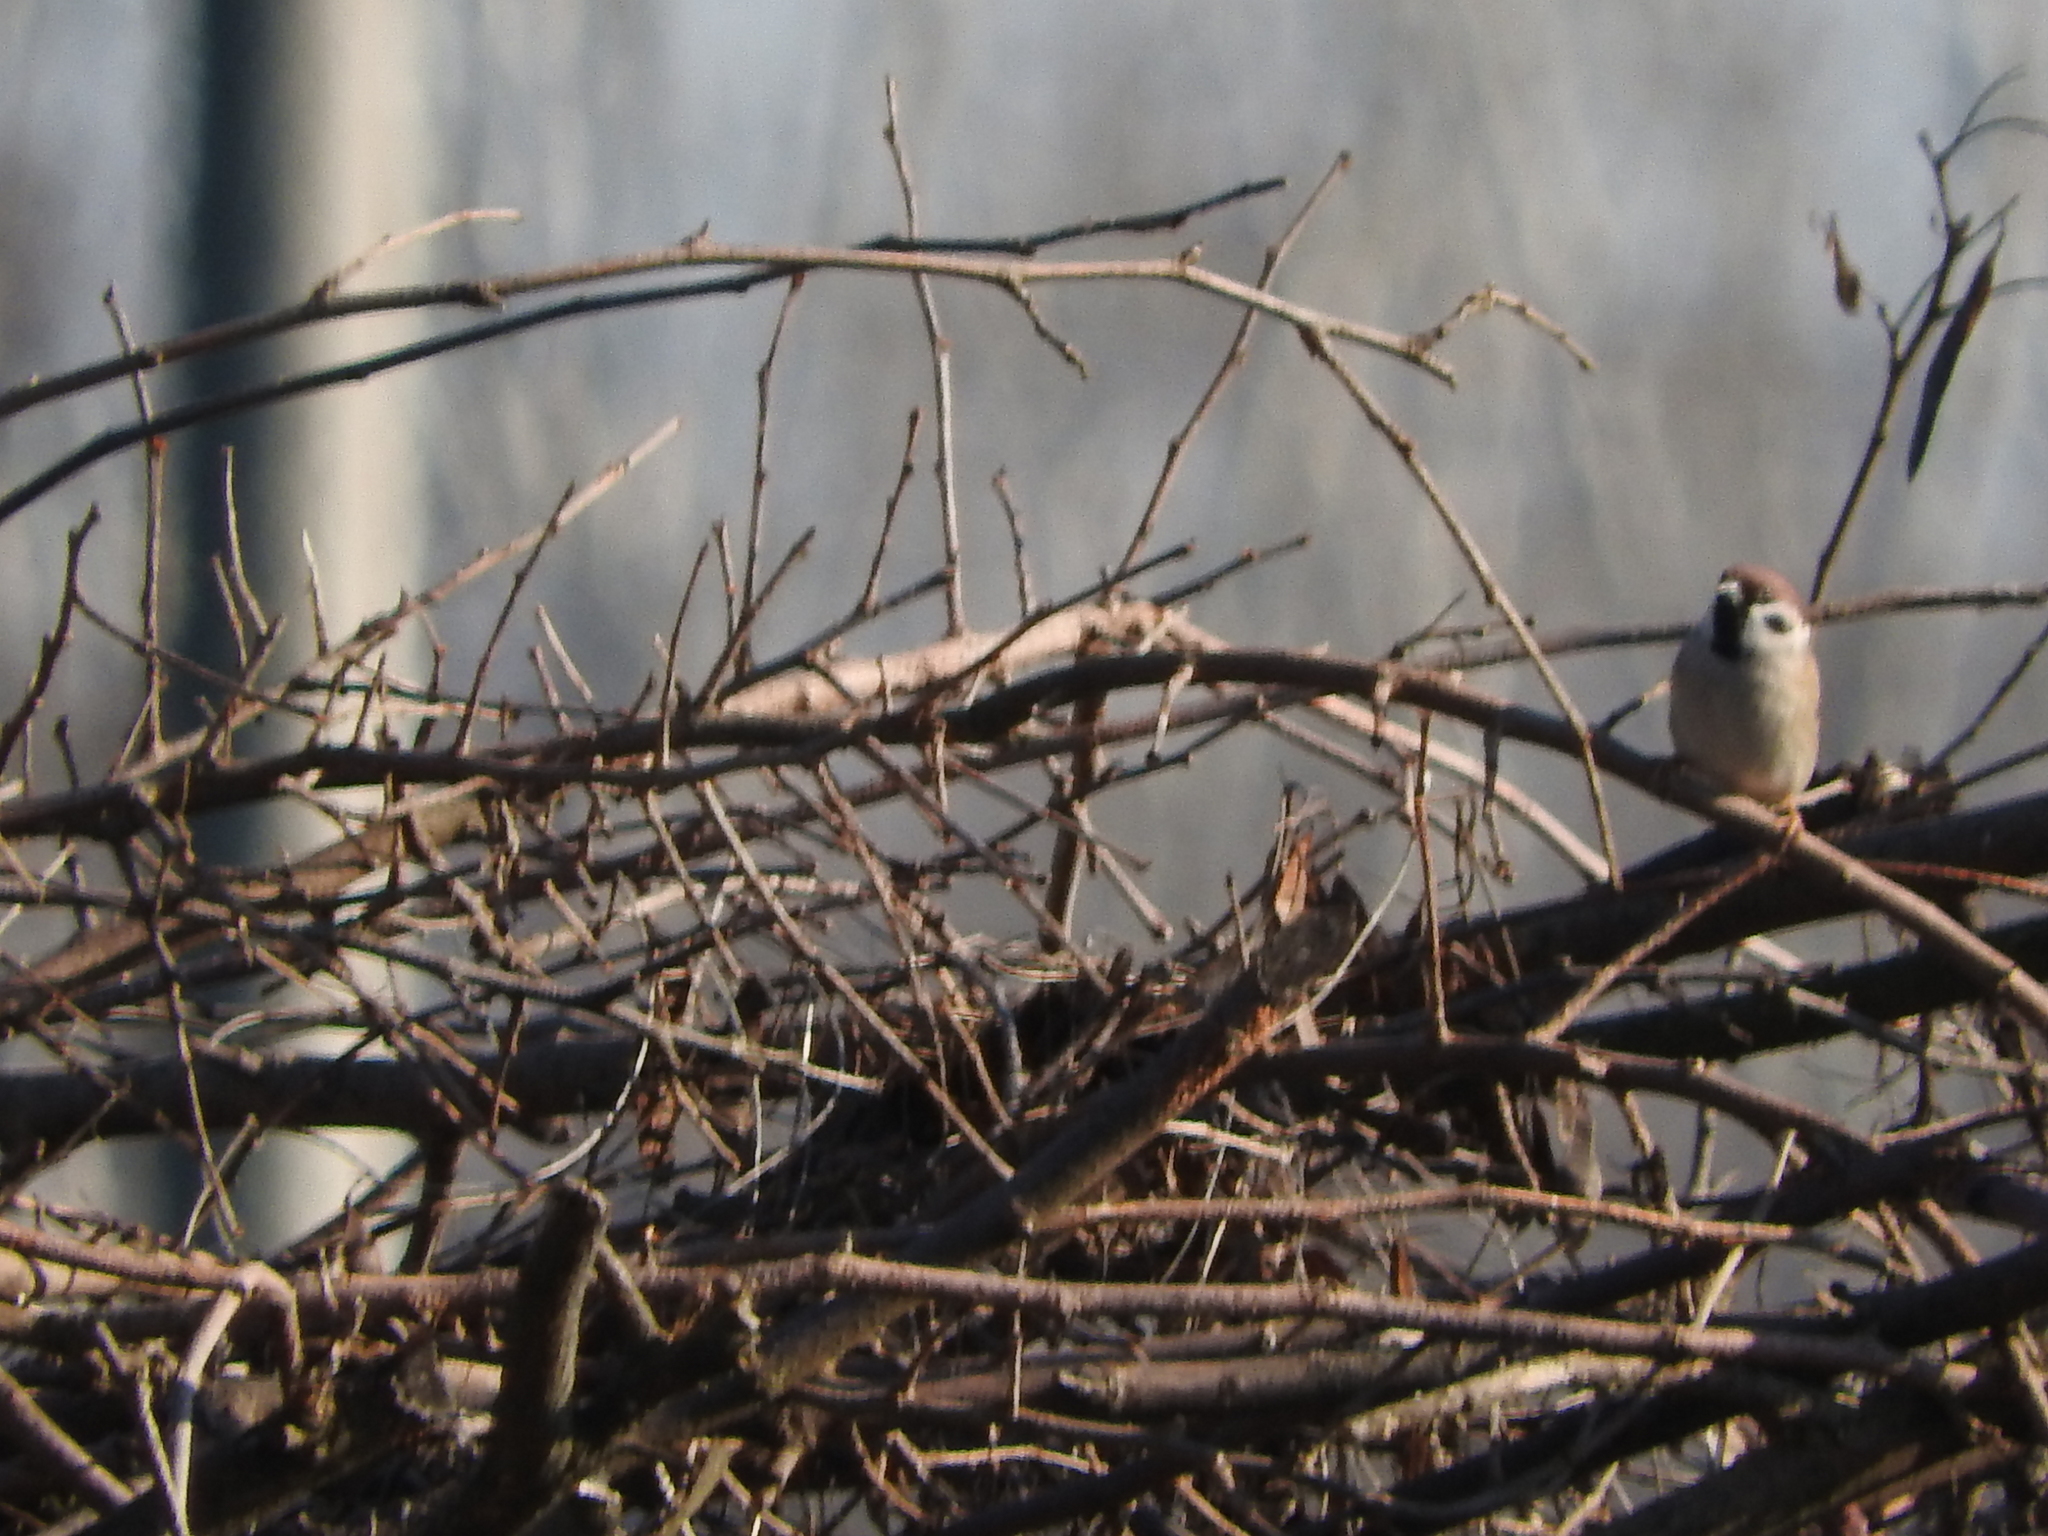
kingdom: Animalia
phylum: Chordata
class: Aves
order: Passeriformes
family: Passeridae
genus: Passer
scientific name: Passer montanus
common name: Eurasian tree sparrow
